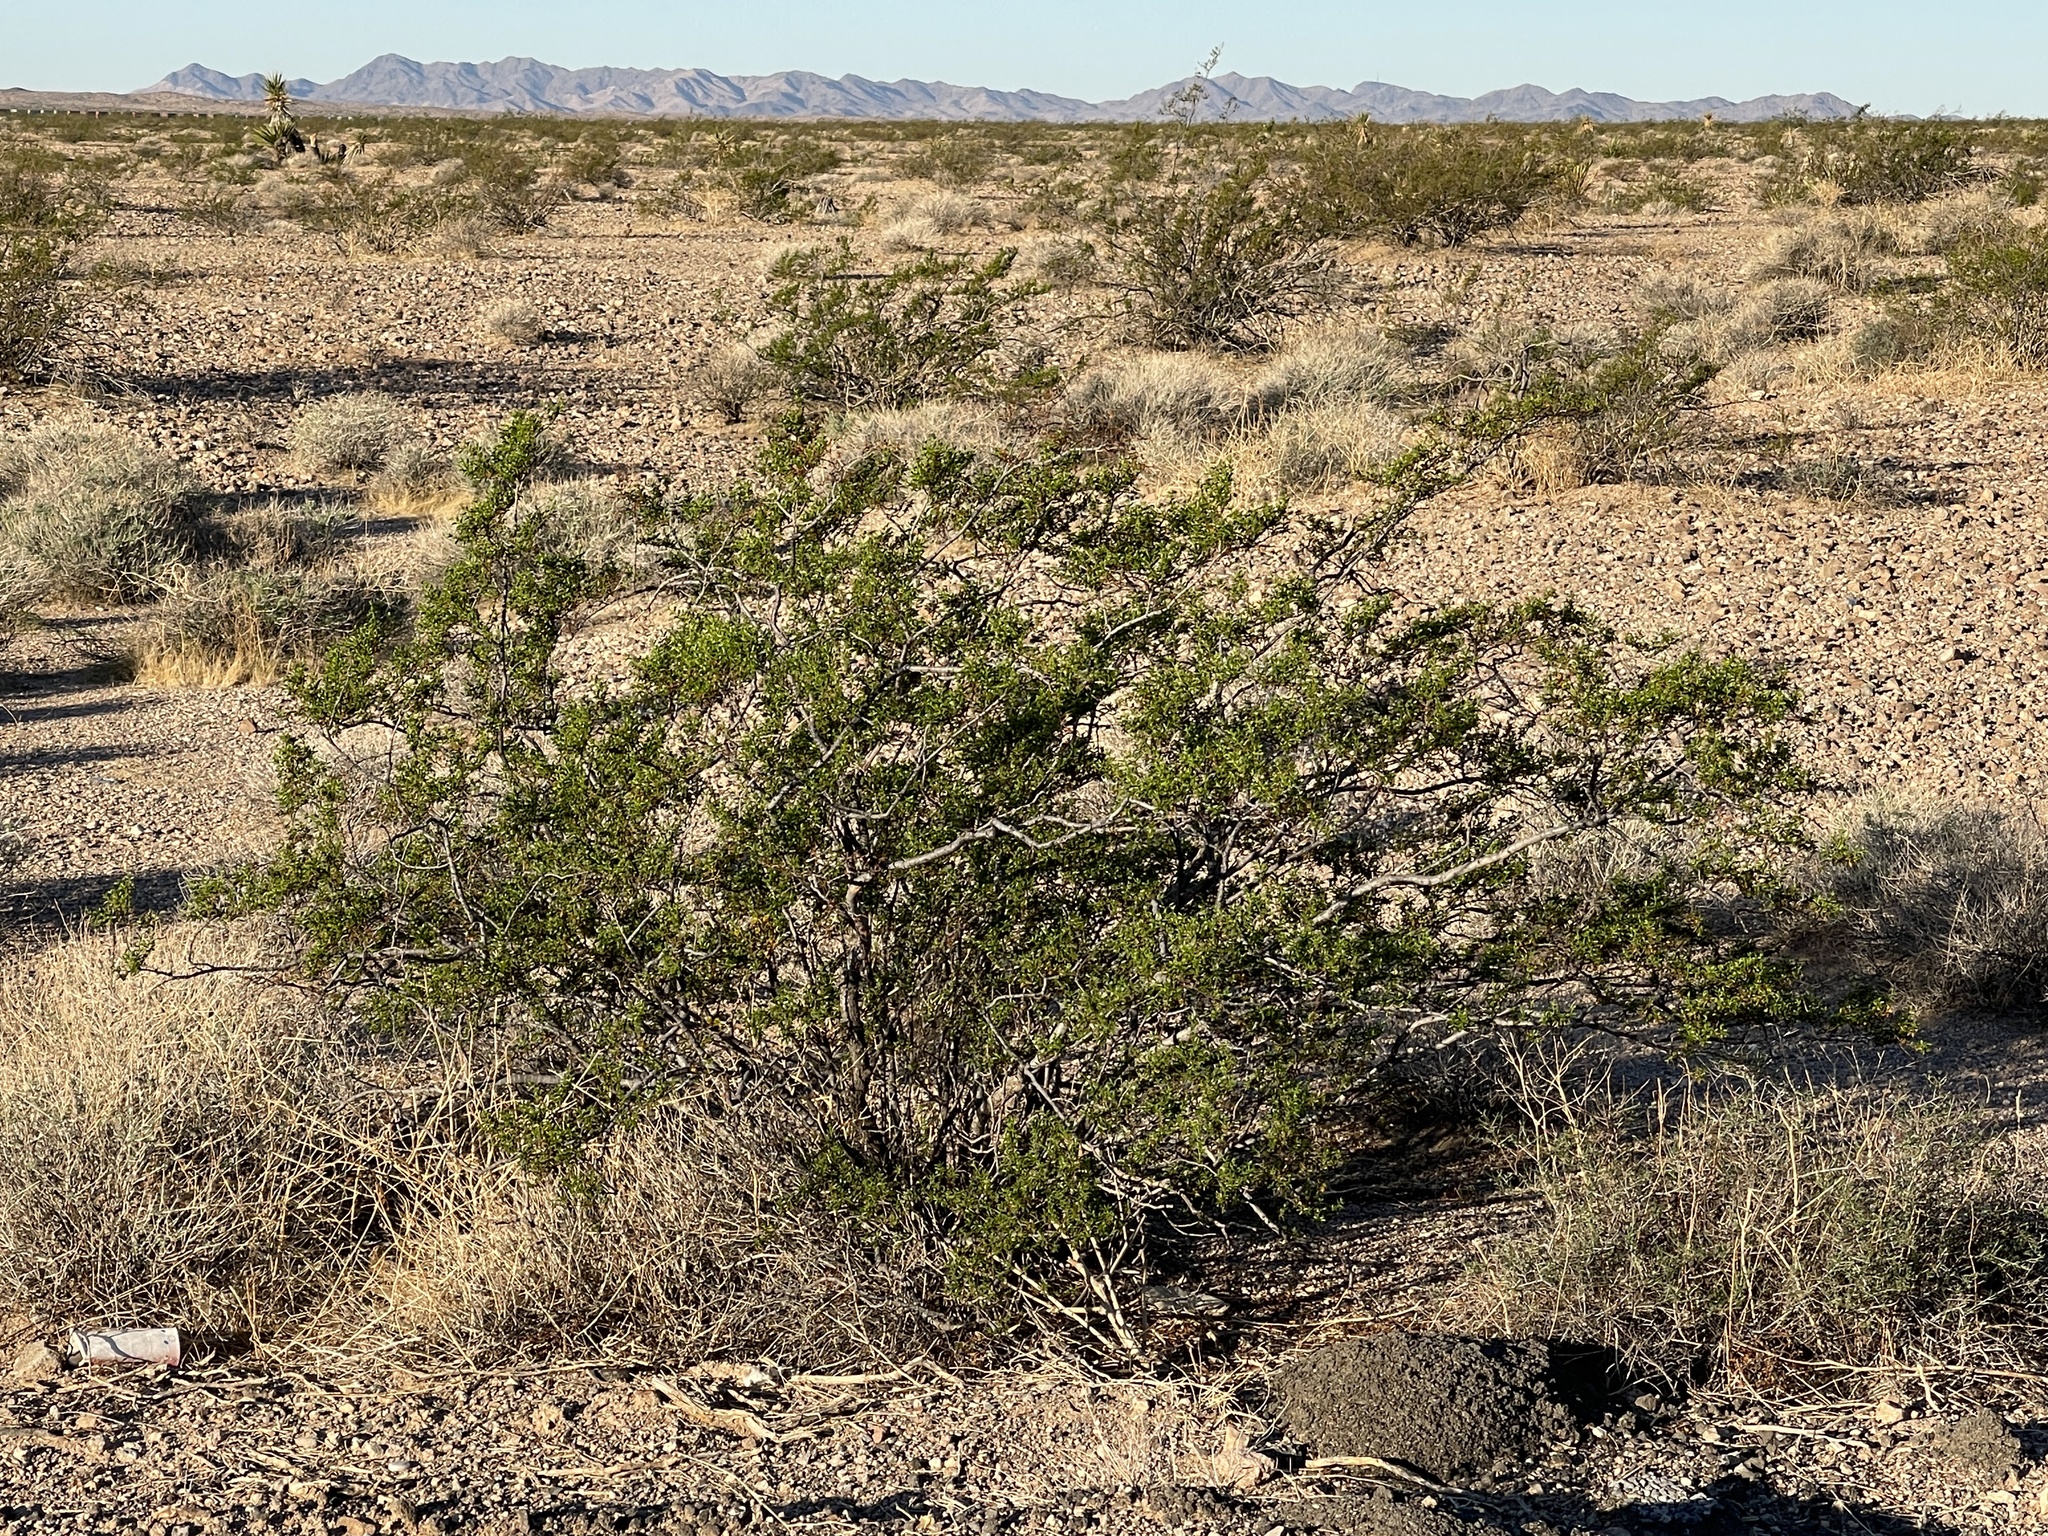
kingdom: Plantae
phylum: Tracheophyta
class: Magnoliopsida
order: Zygophyllales
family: Zygophyllaceae
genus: Larrea
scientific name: Larrea tridentata
